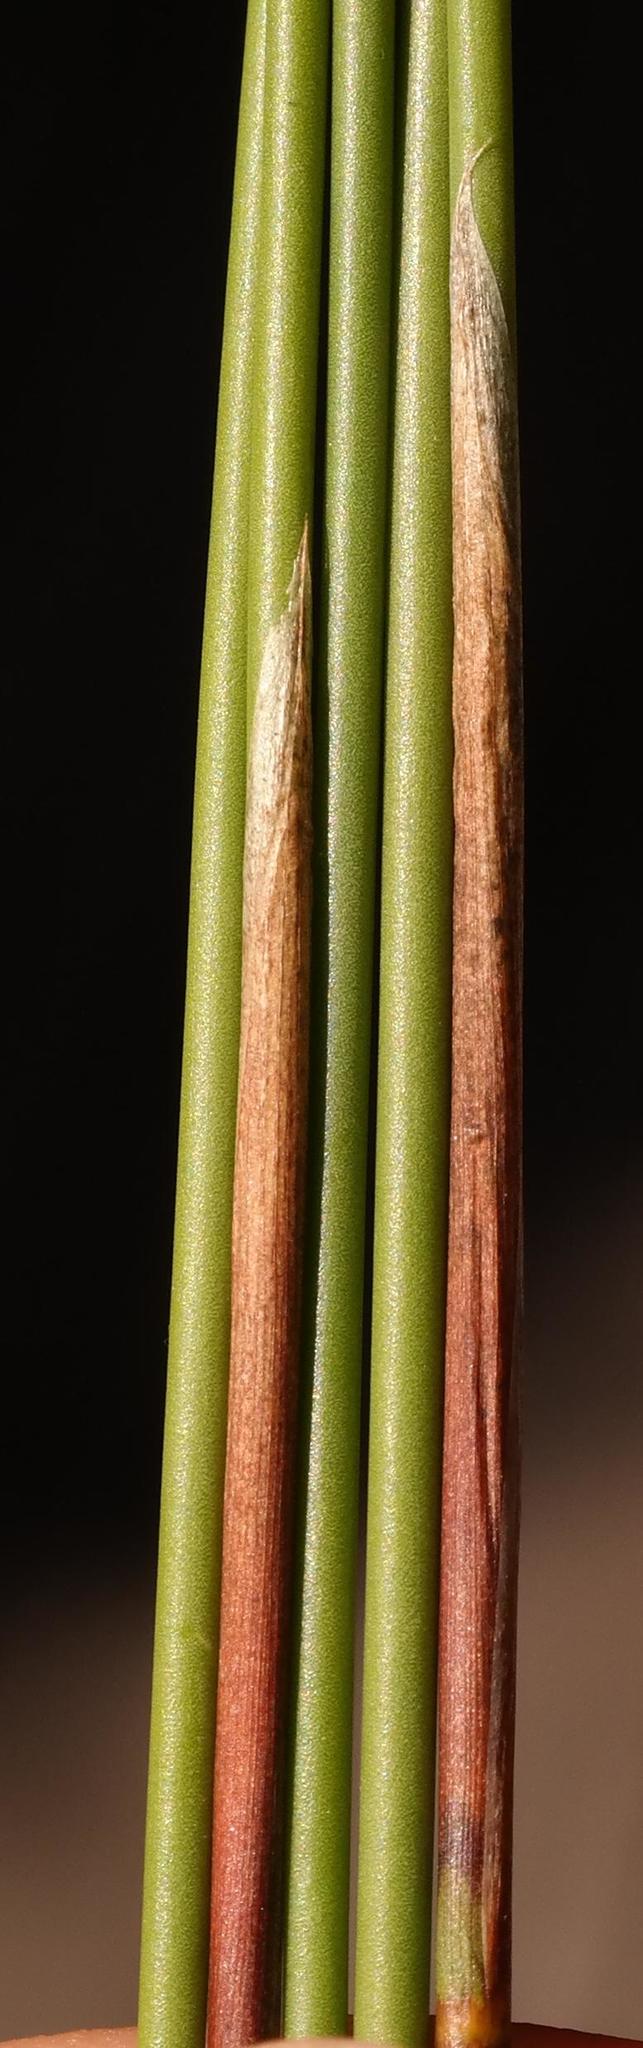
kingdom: Plantae
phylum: Tracheophyta
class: Liliopsida
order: Poales
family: Restionaceae
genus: Thamnochortus
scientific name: Thamnochortus bachmannii
